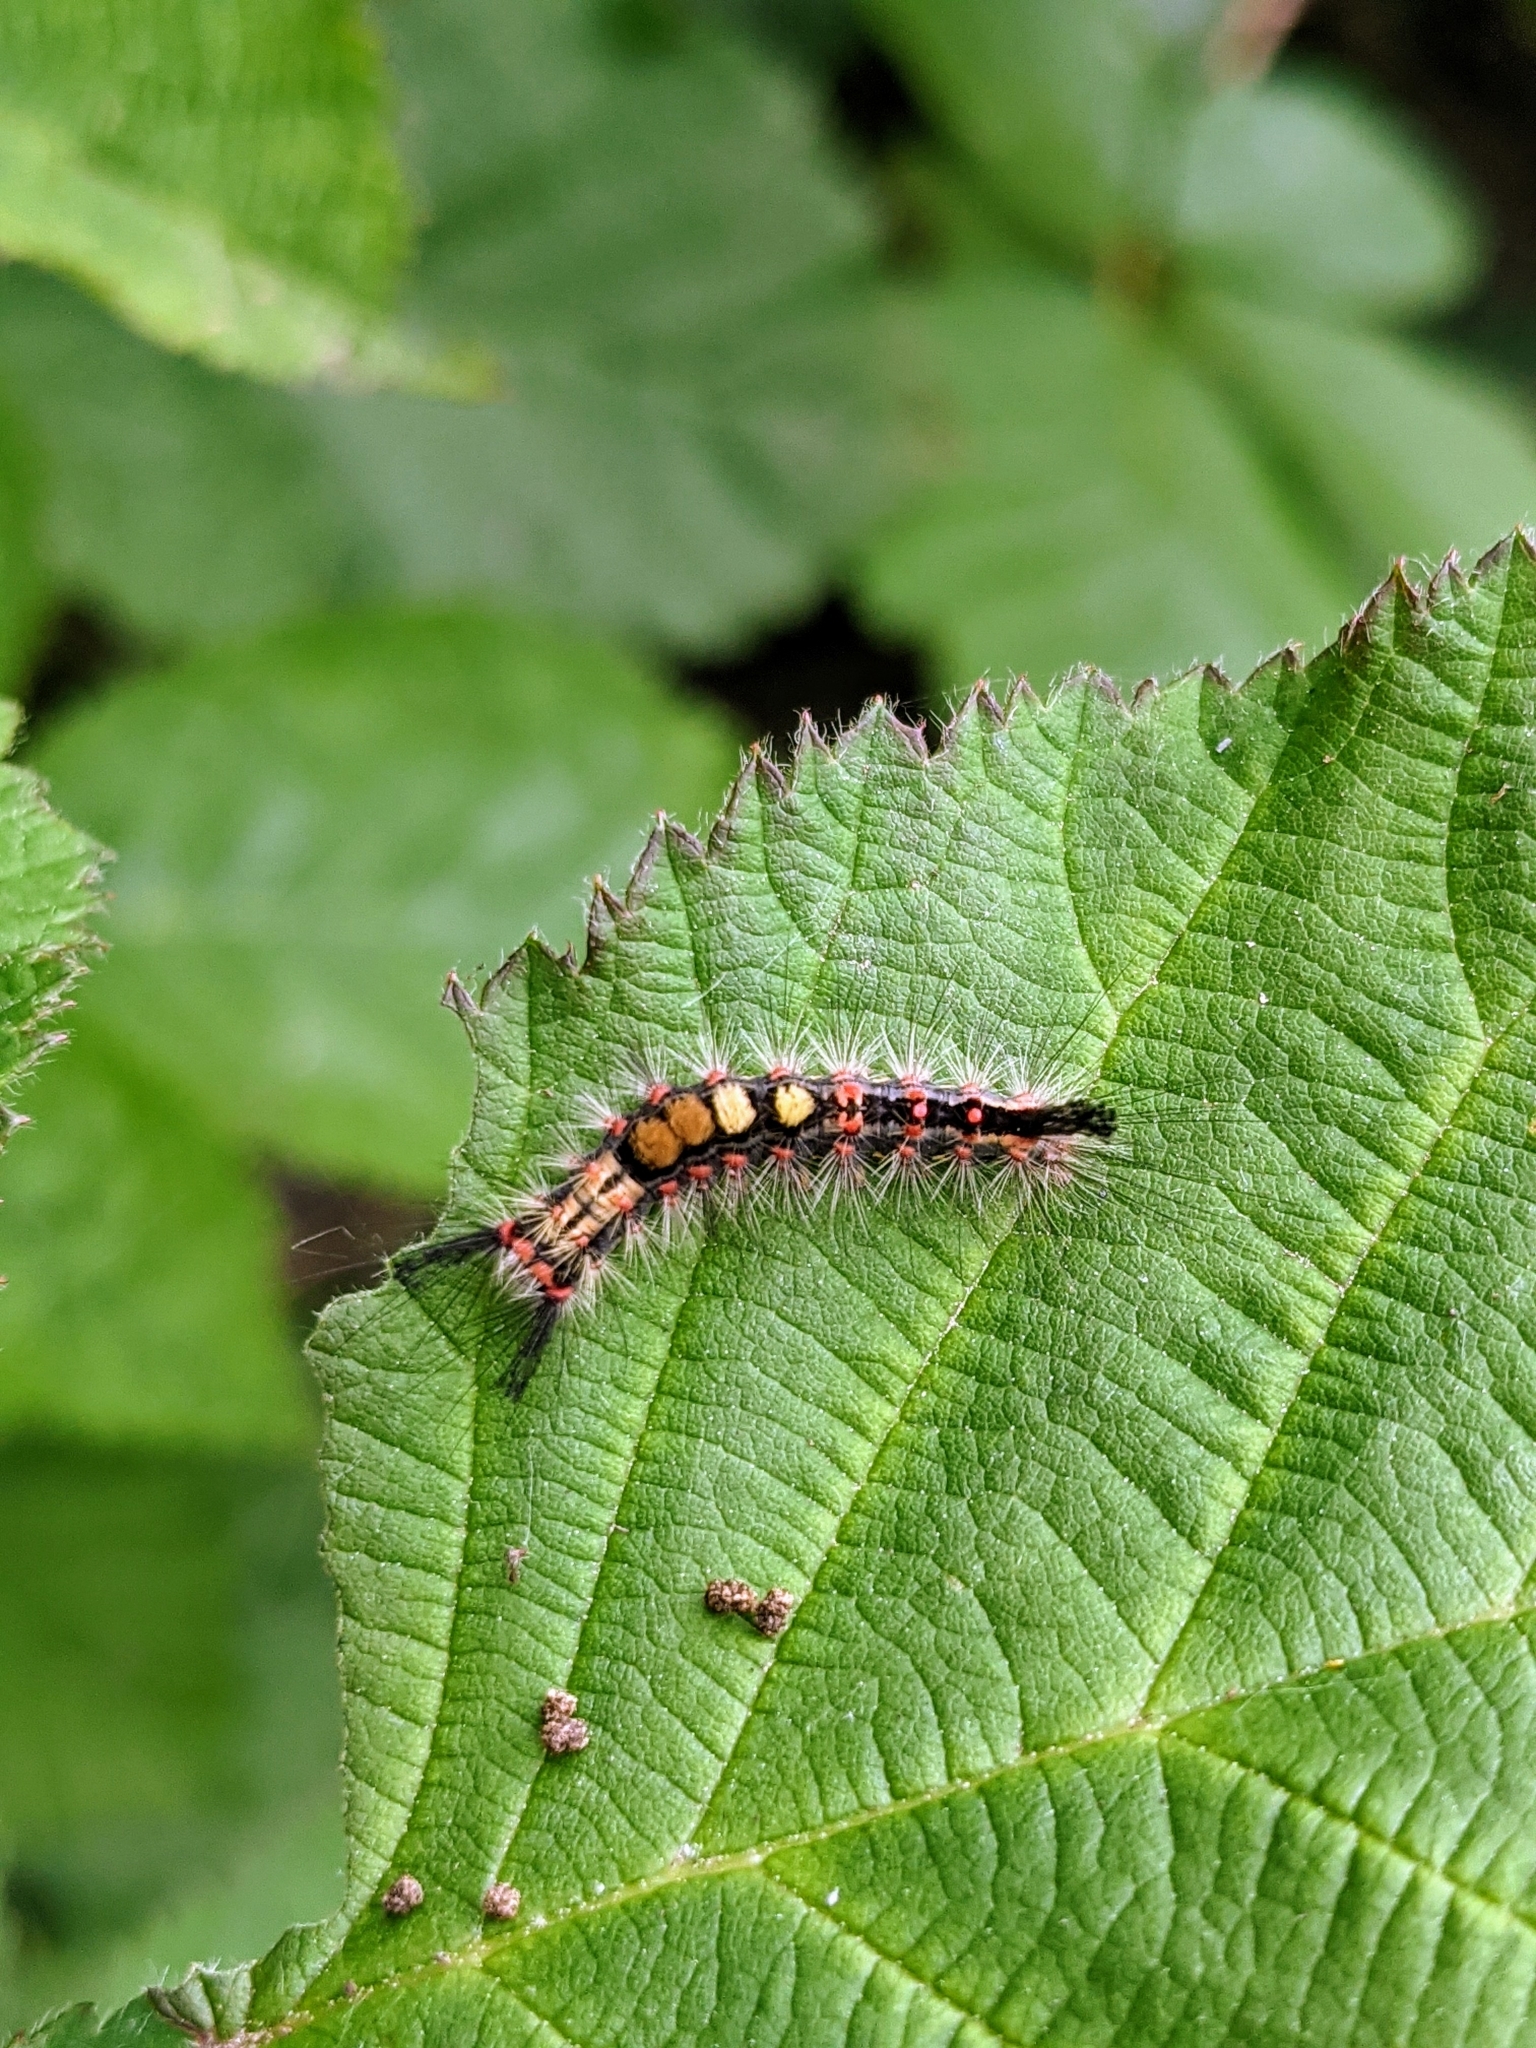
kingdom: Animalia
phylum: Arthropoda
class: Insecta
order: Lepidoptera
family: Erebidae
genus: Orgyia
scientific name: Orgyia antiqua
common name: Vapourer
